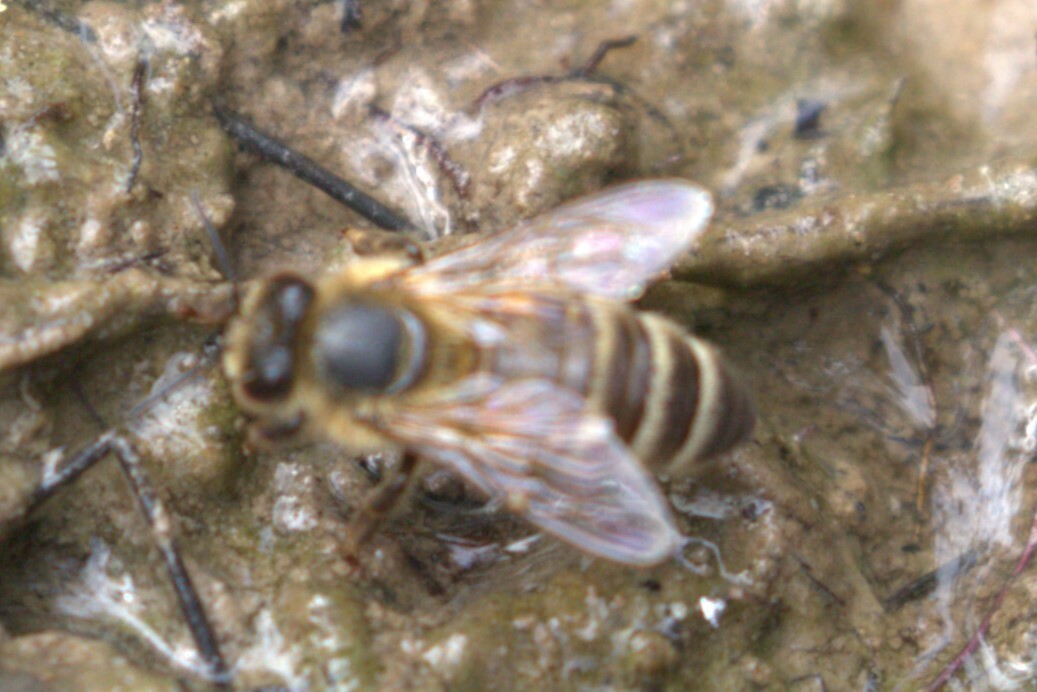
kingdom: Animalia
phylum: Arthropoda
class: Insecta
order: Hymenoptera
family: Apidae
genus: Apis
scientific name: Apis mellifera
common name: Honey bee
